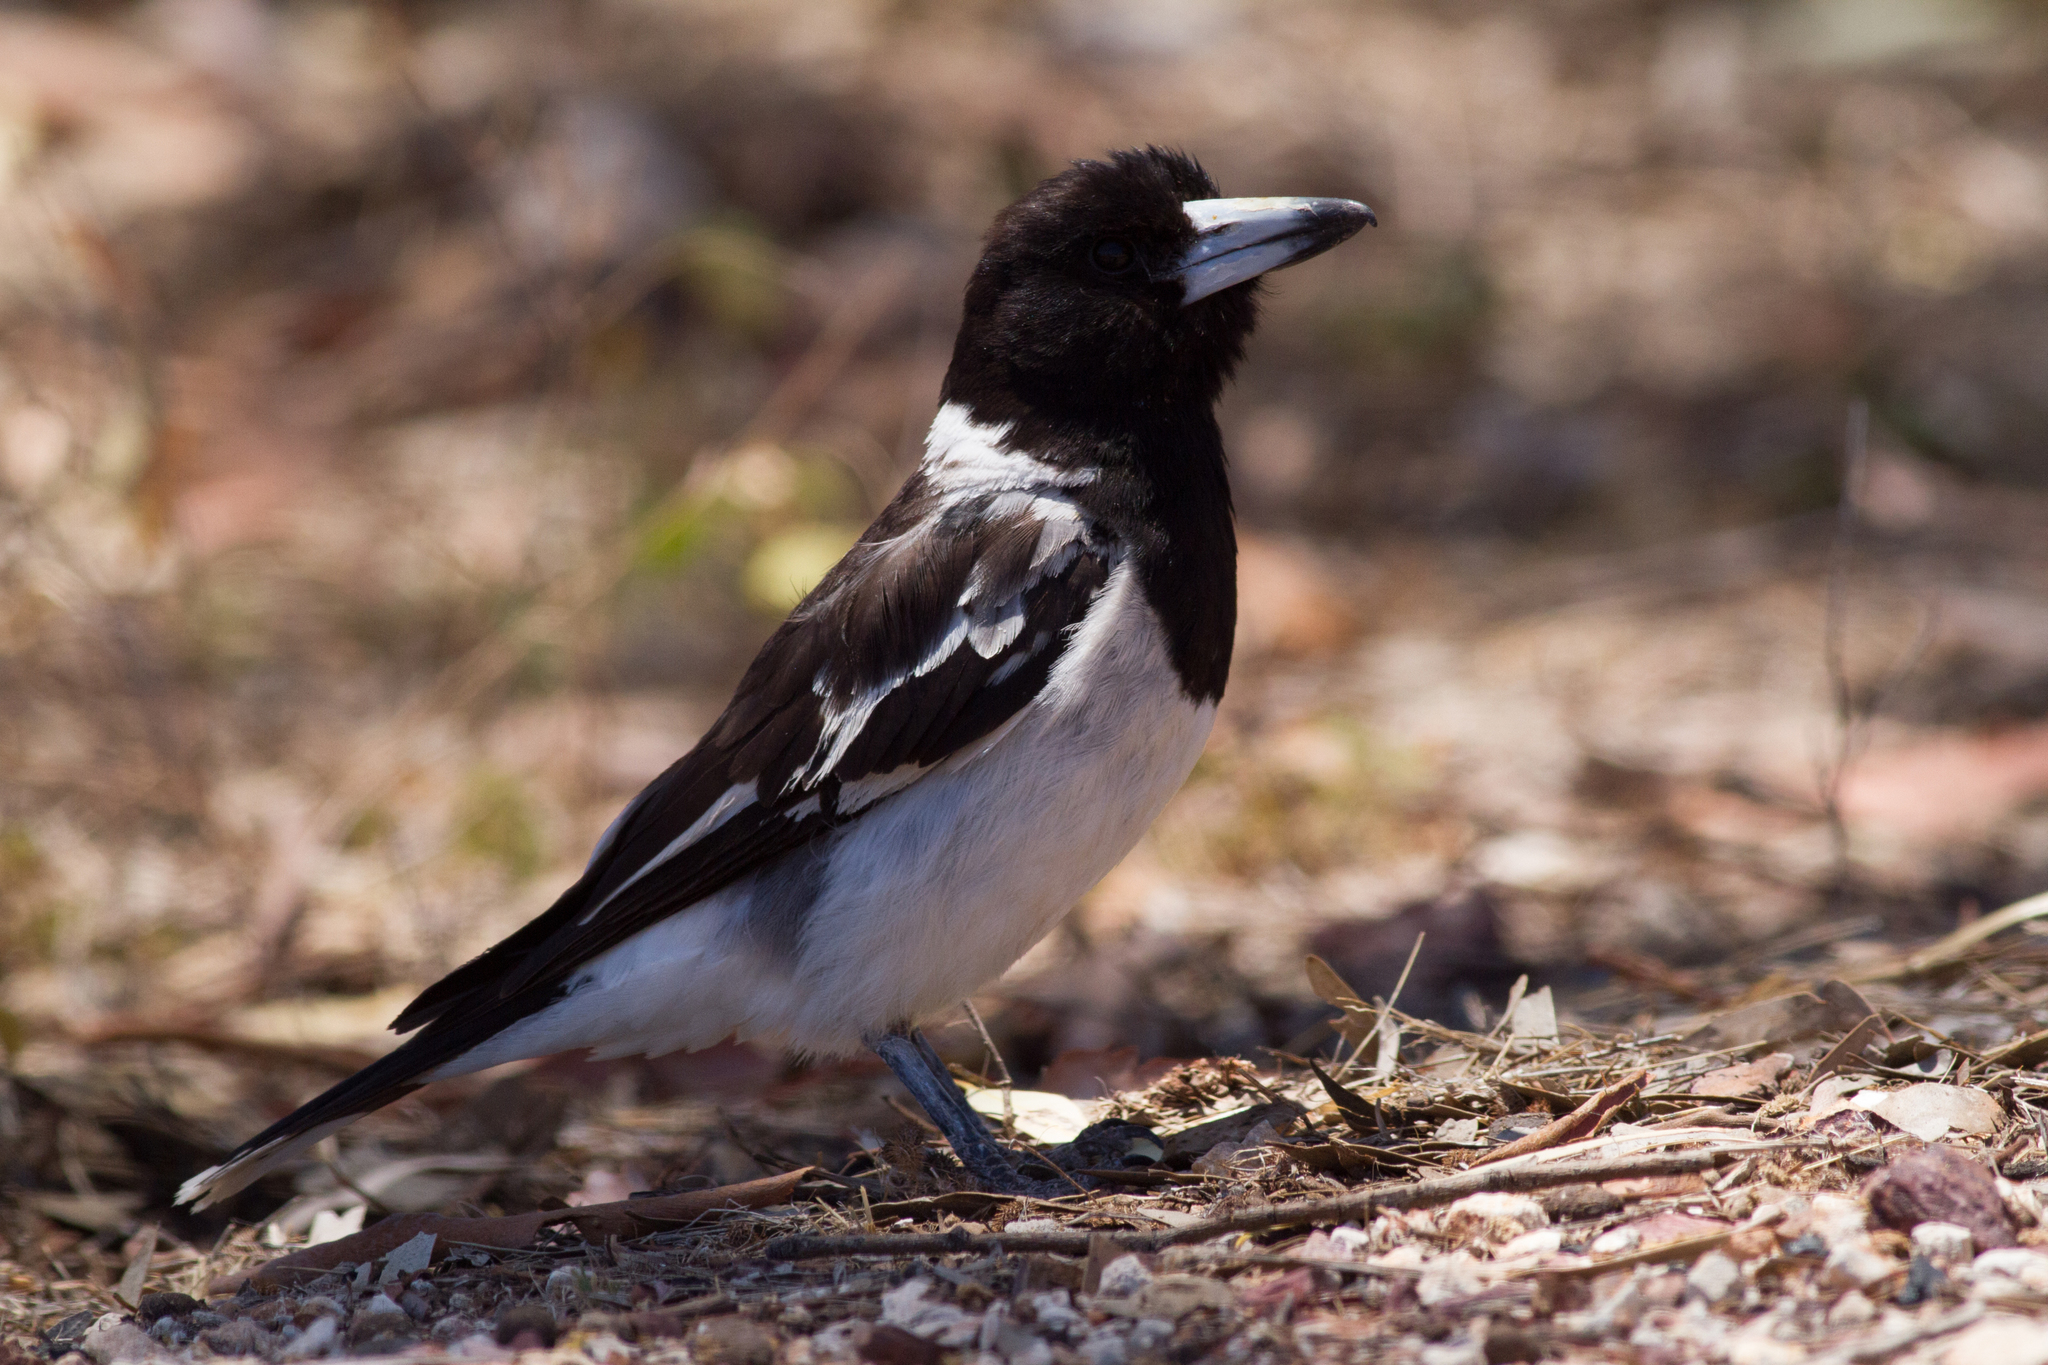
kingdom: Animalia
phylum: Chordata
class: Aves
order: Passeriformes
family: Cracticidae
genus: Cracticus
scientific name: Cracticus nigrogularis
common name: Pied butcherbird
